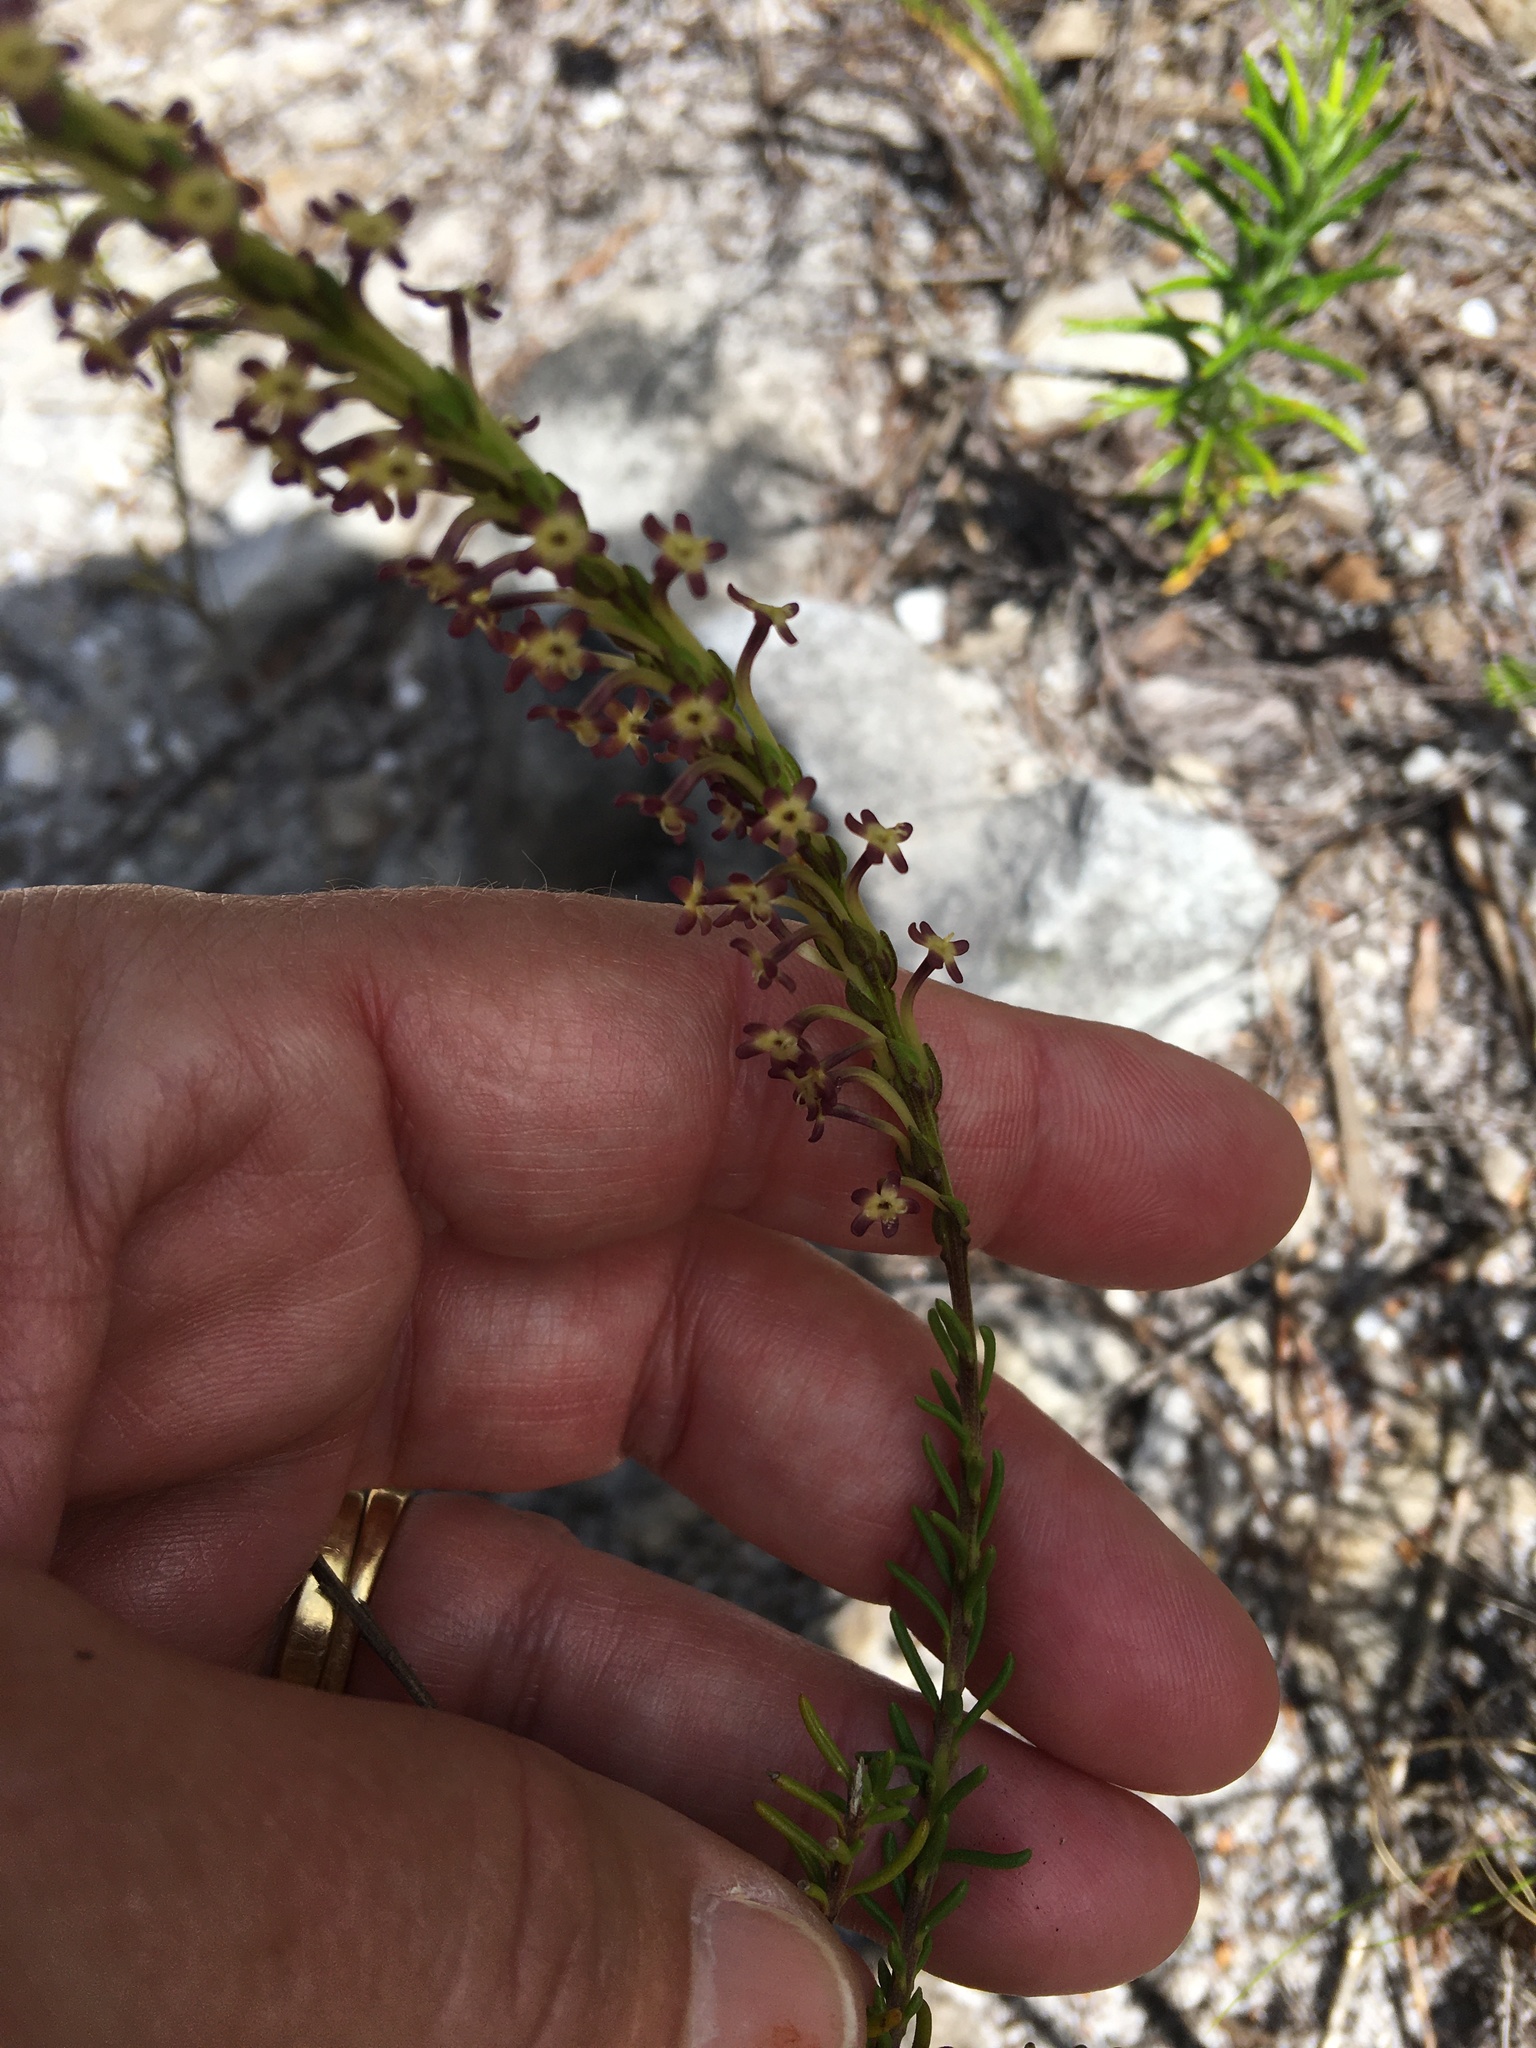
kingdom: Plantae
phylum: Tracheophyta
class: Magnoliopsida
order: Lamiales
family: Scrophulariaceae
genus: Microdon
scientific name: Microdon dubius
